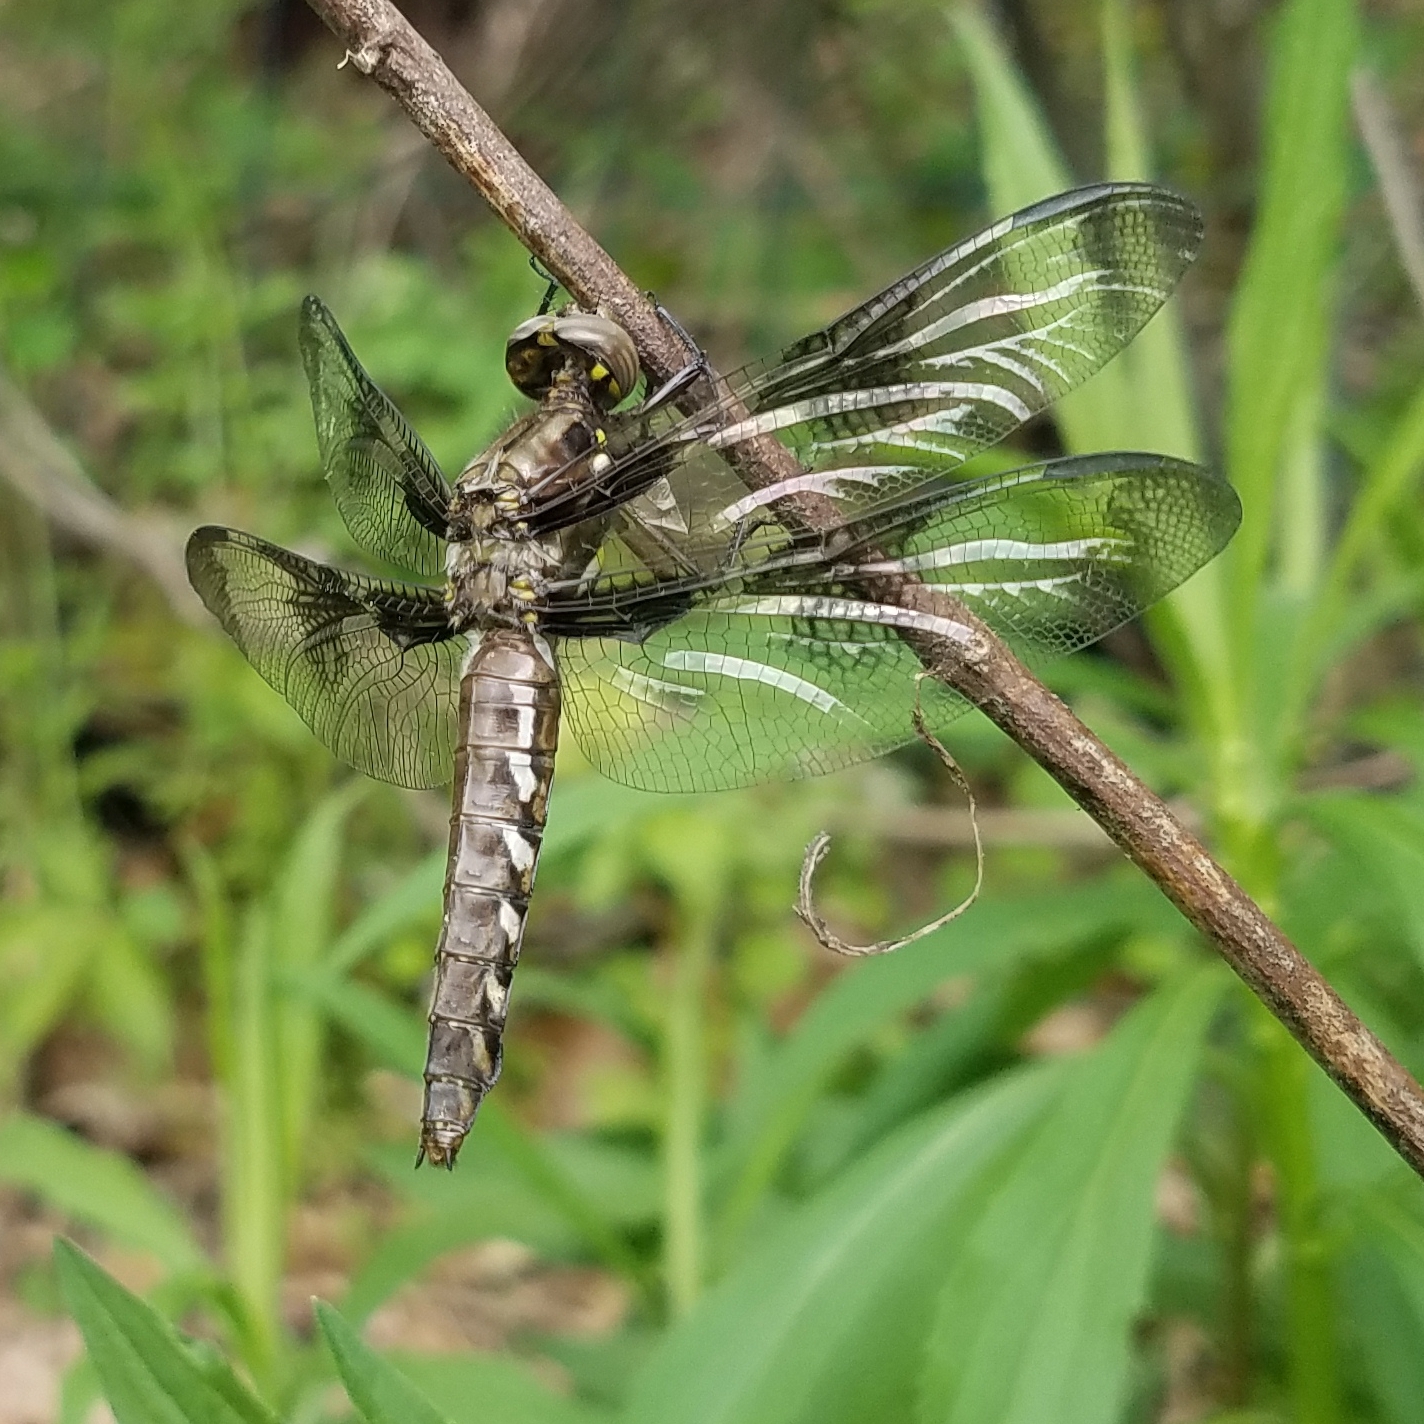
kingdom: Animalia
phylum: Arthropoda
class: Insecta
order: Odonata
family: Libellulidae
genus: Plathemis
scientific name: Plathemis lydia
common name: Common whitetail
